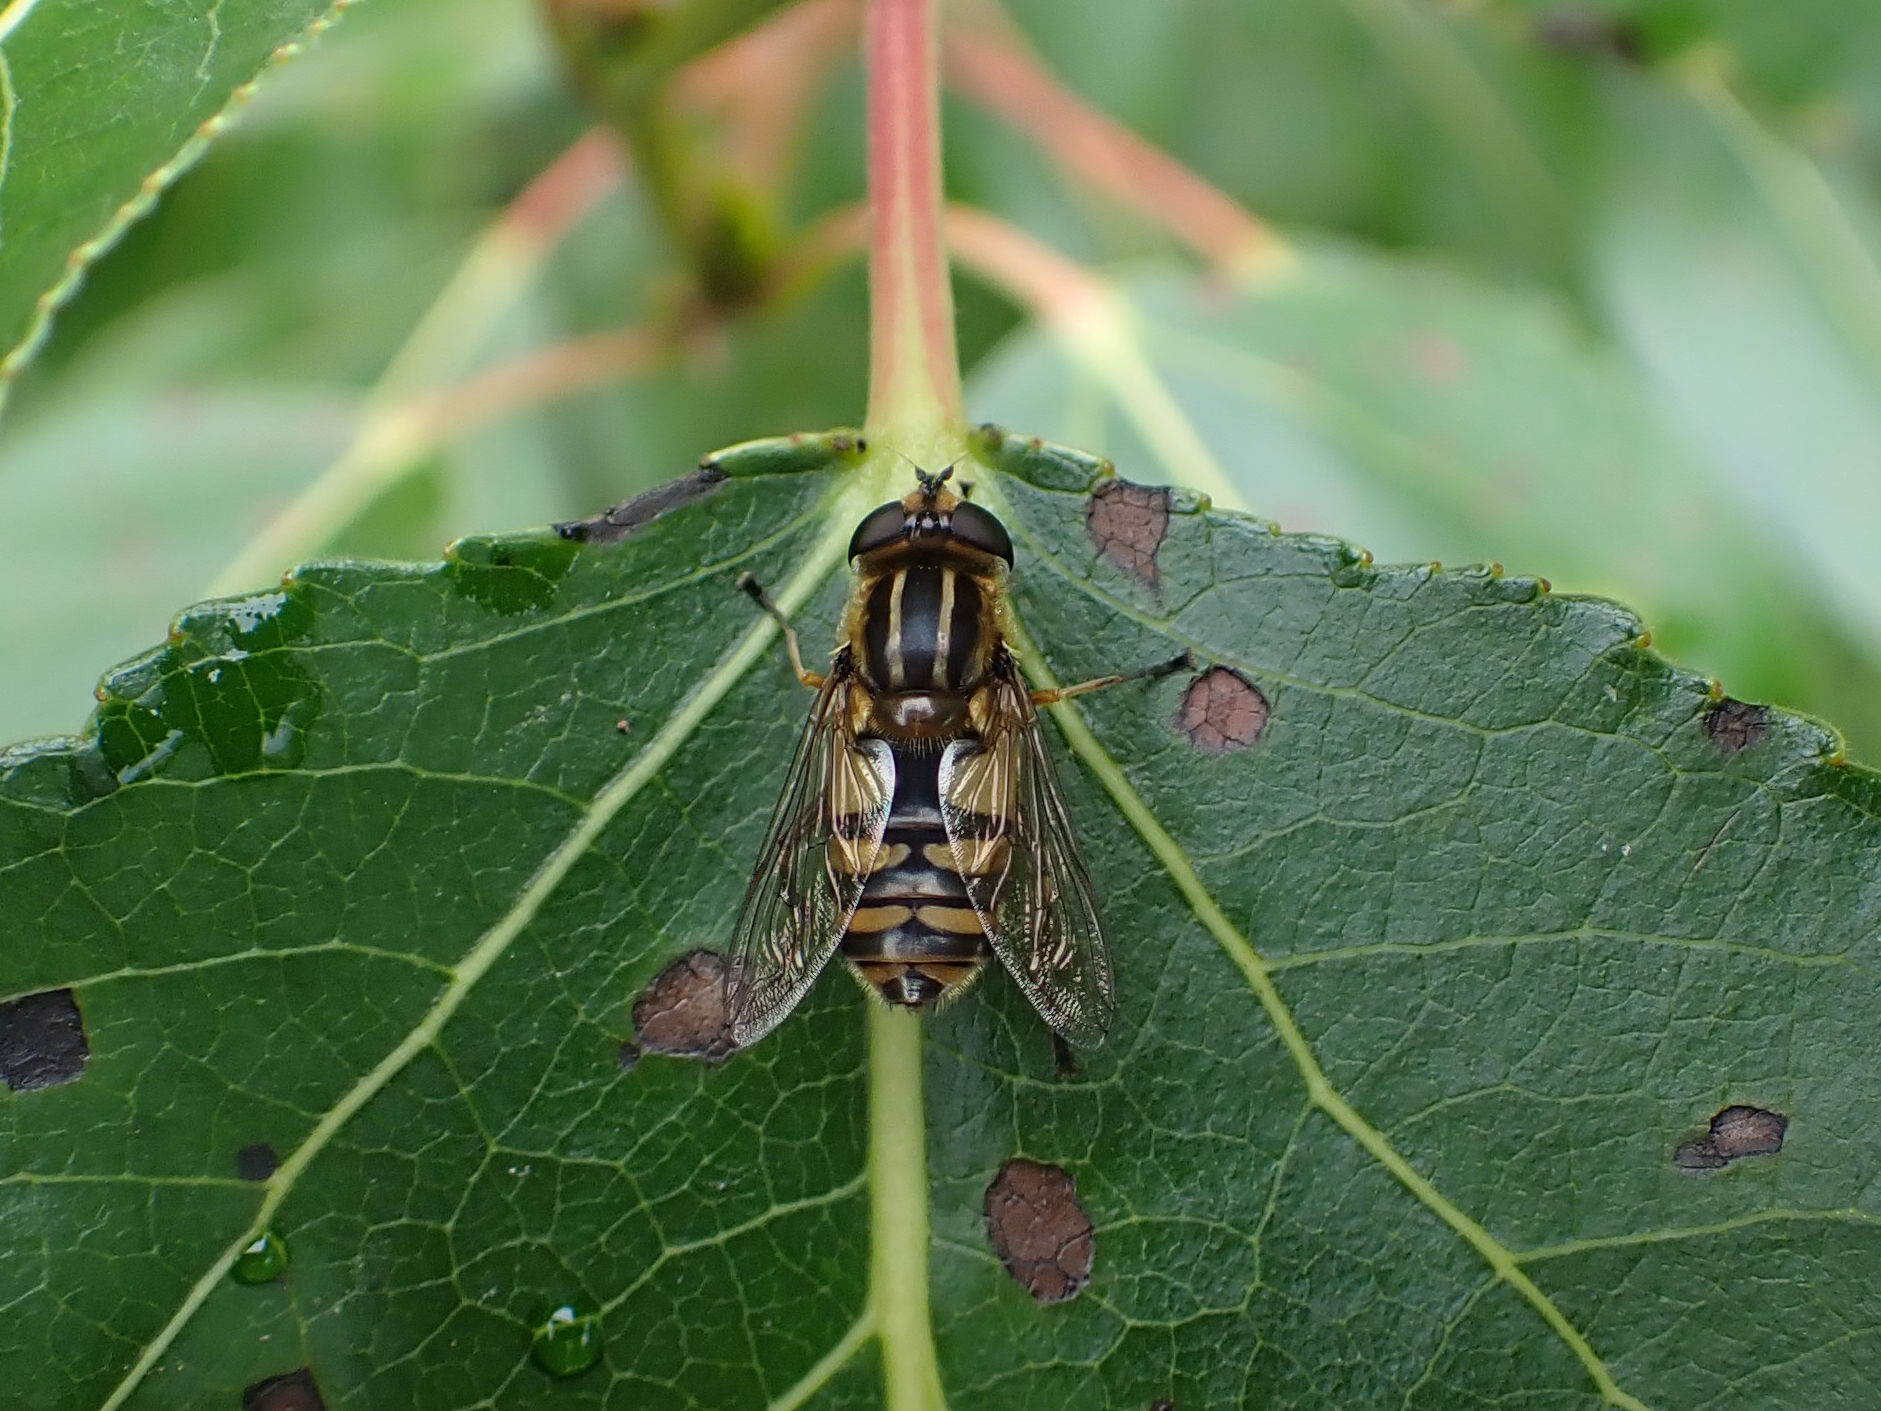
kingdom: Animalia
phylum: Arthropoda
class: Insecta
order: Diptera
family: Syrphidae
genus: Helophilus
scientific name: Helophilus hybridus
